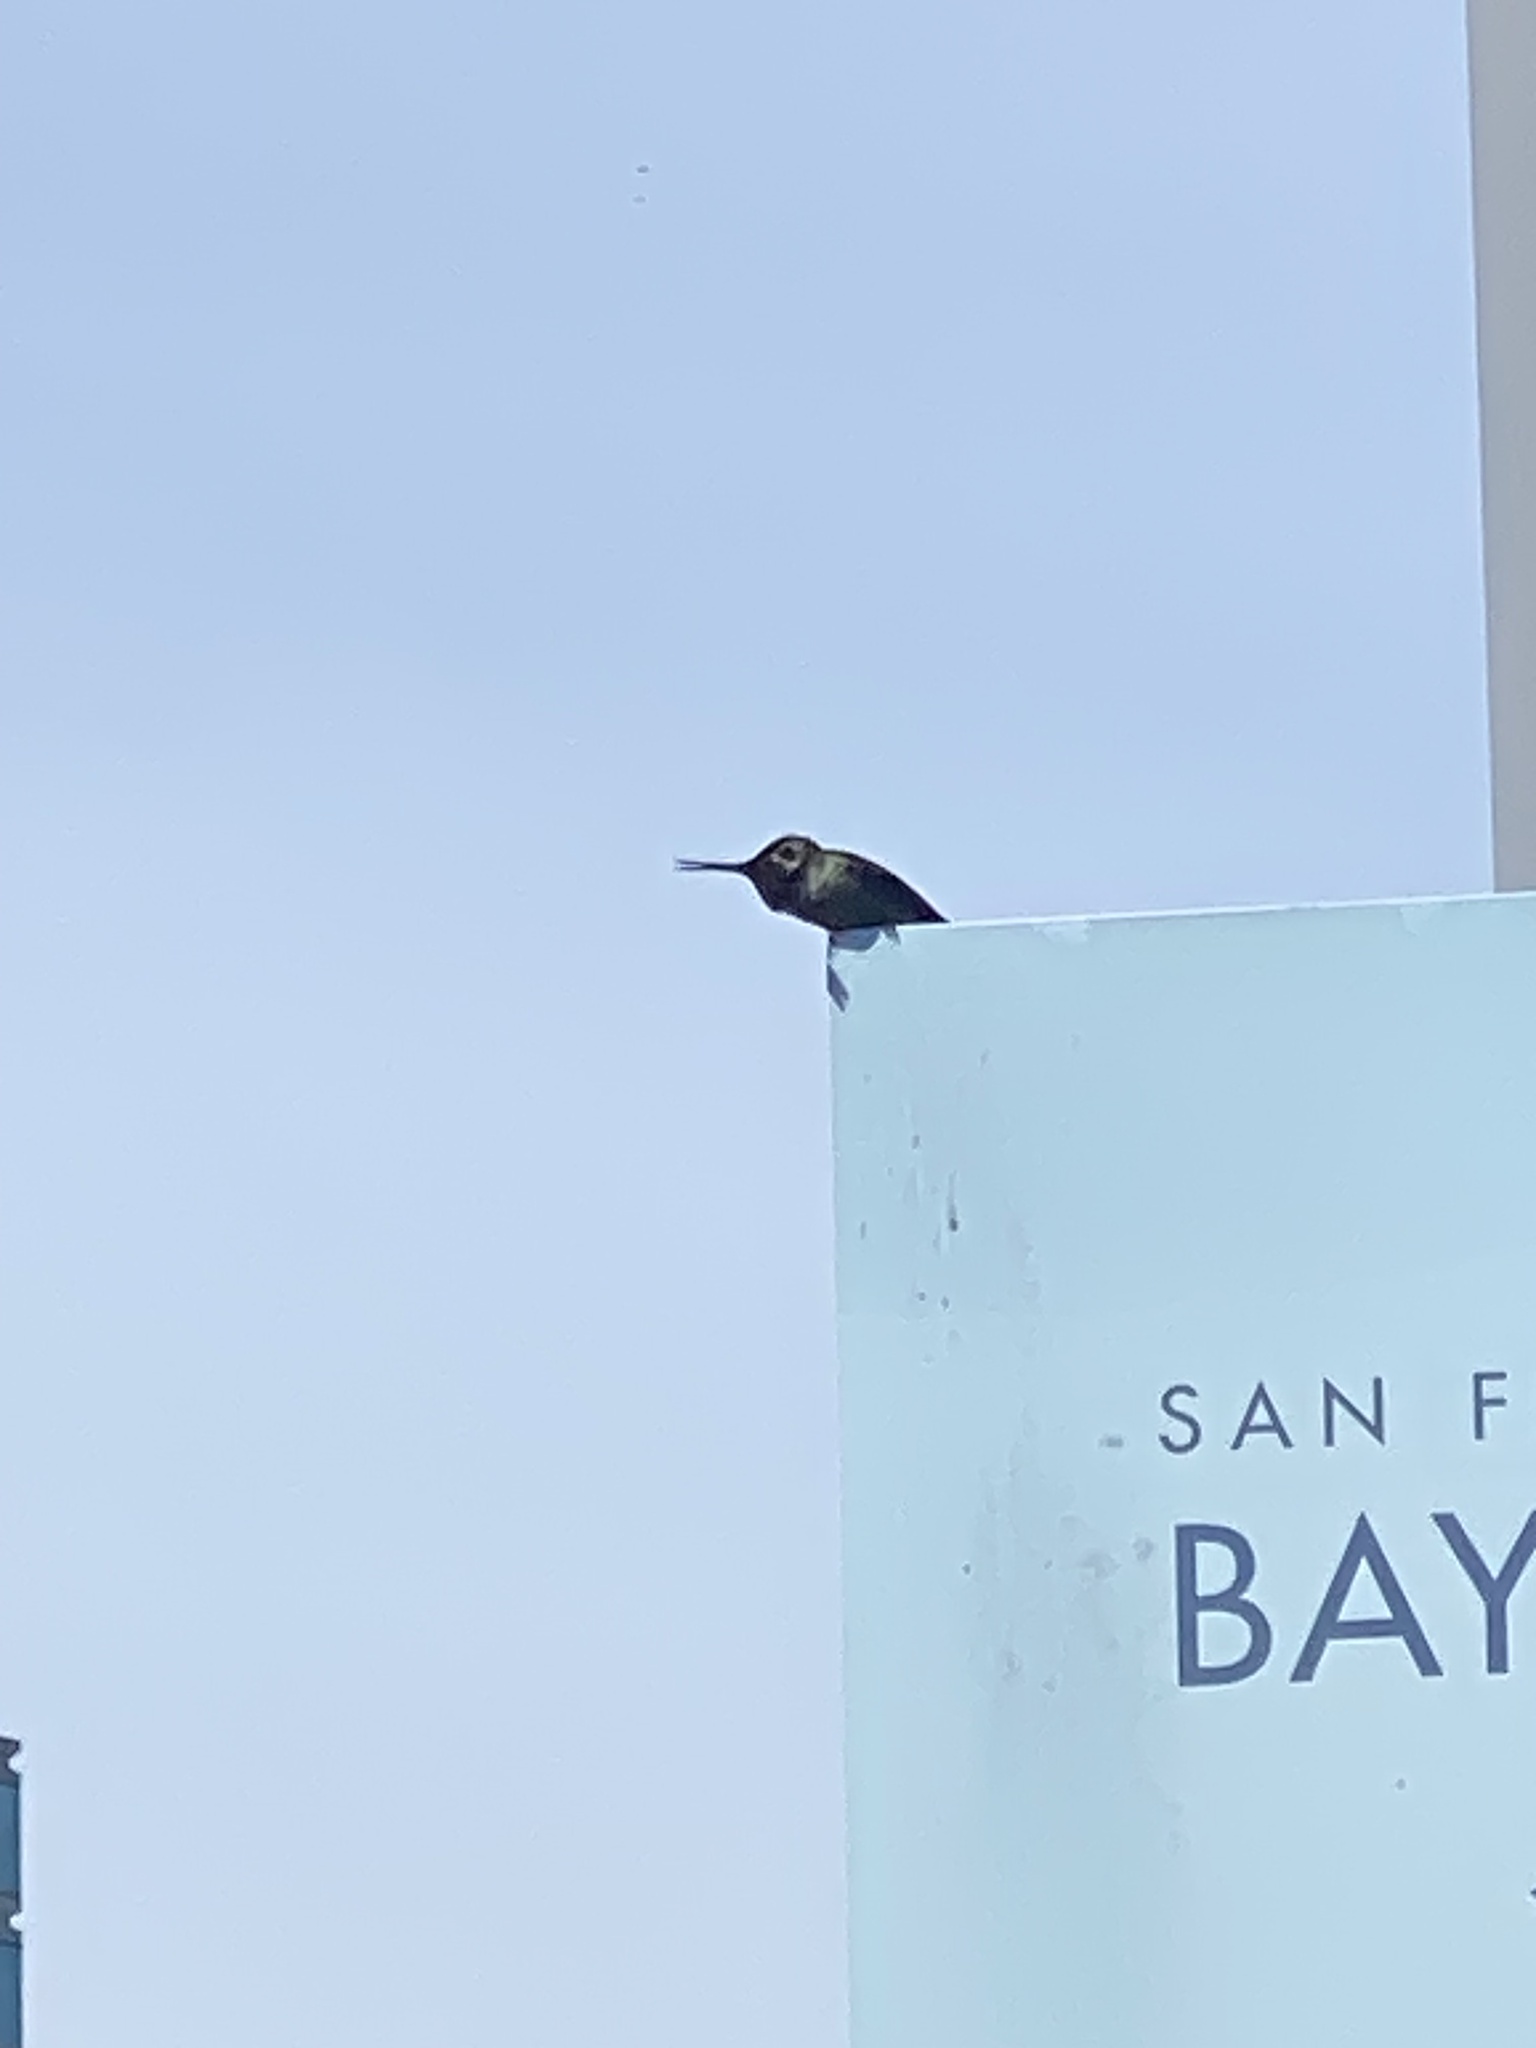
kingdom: Animalia
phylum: Chordata
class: Aves
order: Apodiformes
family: Trochilidae
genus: Calypte
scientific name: Calypte anna
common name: Anna's hummingbird
